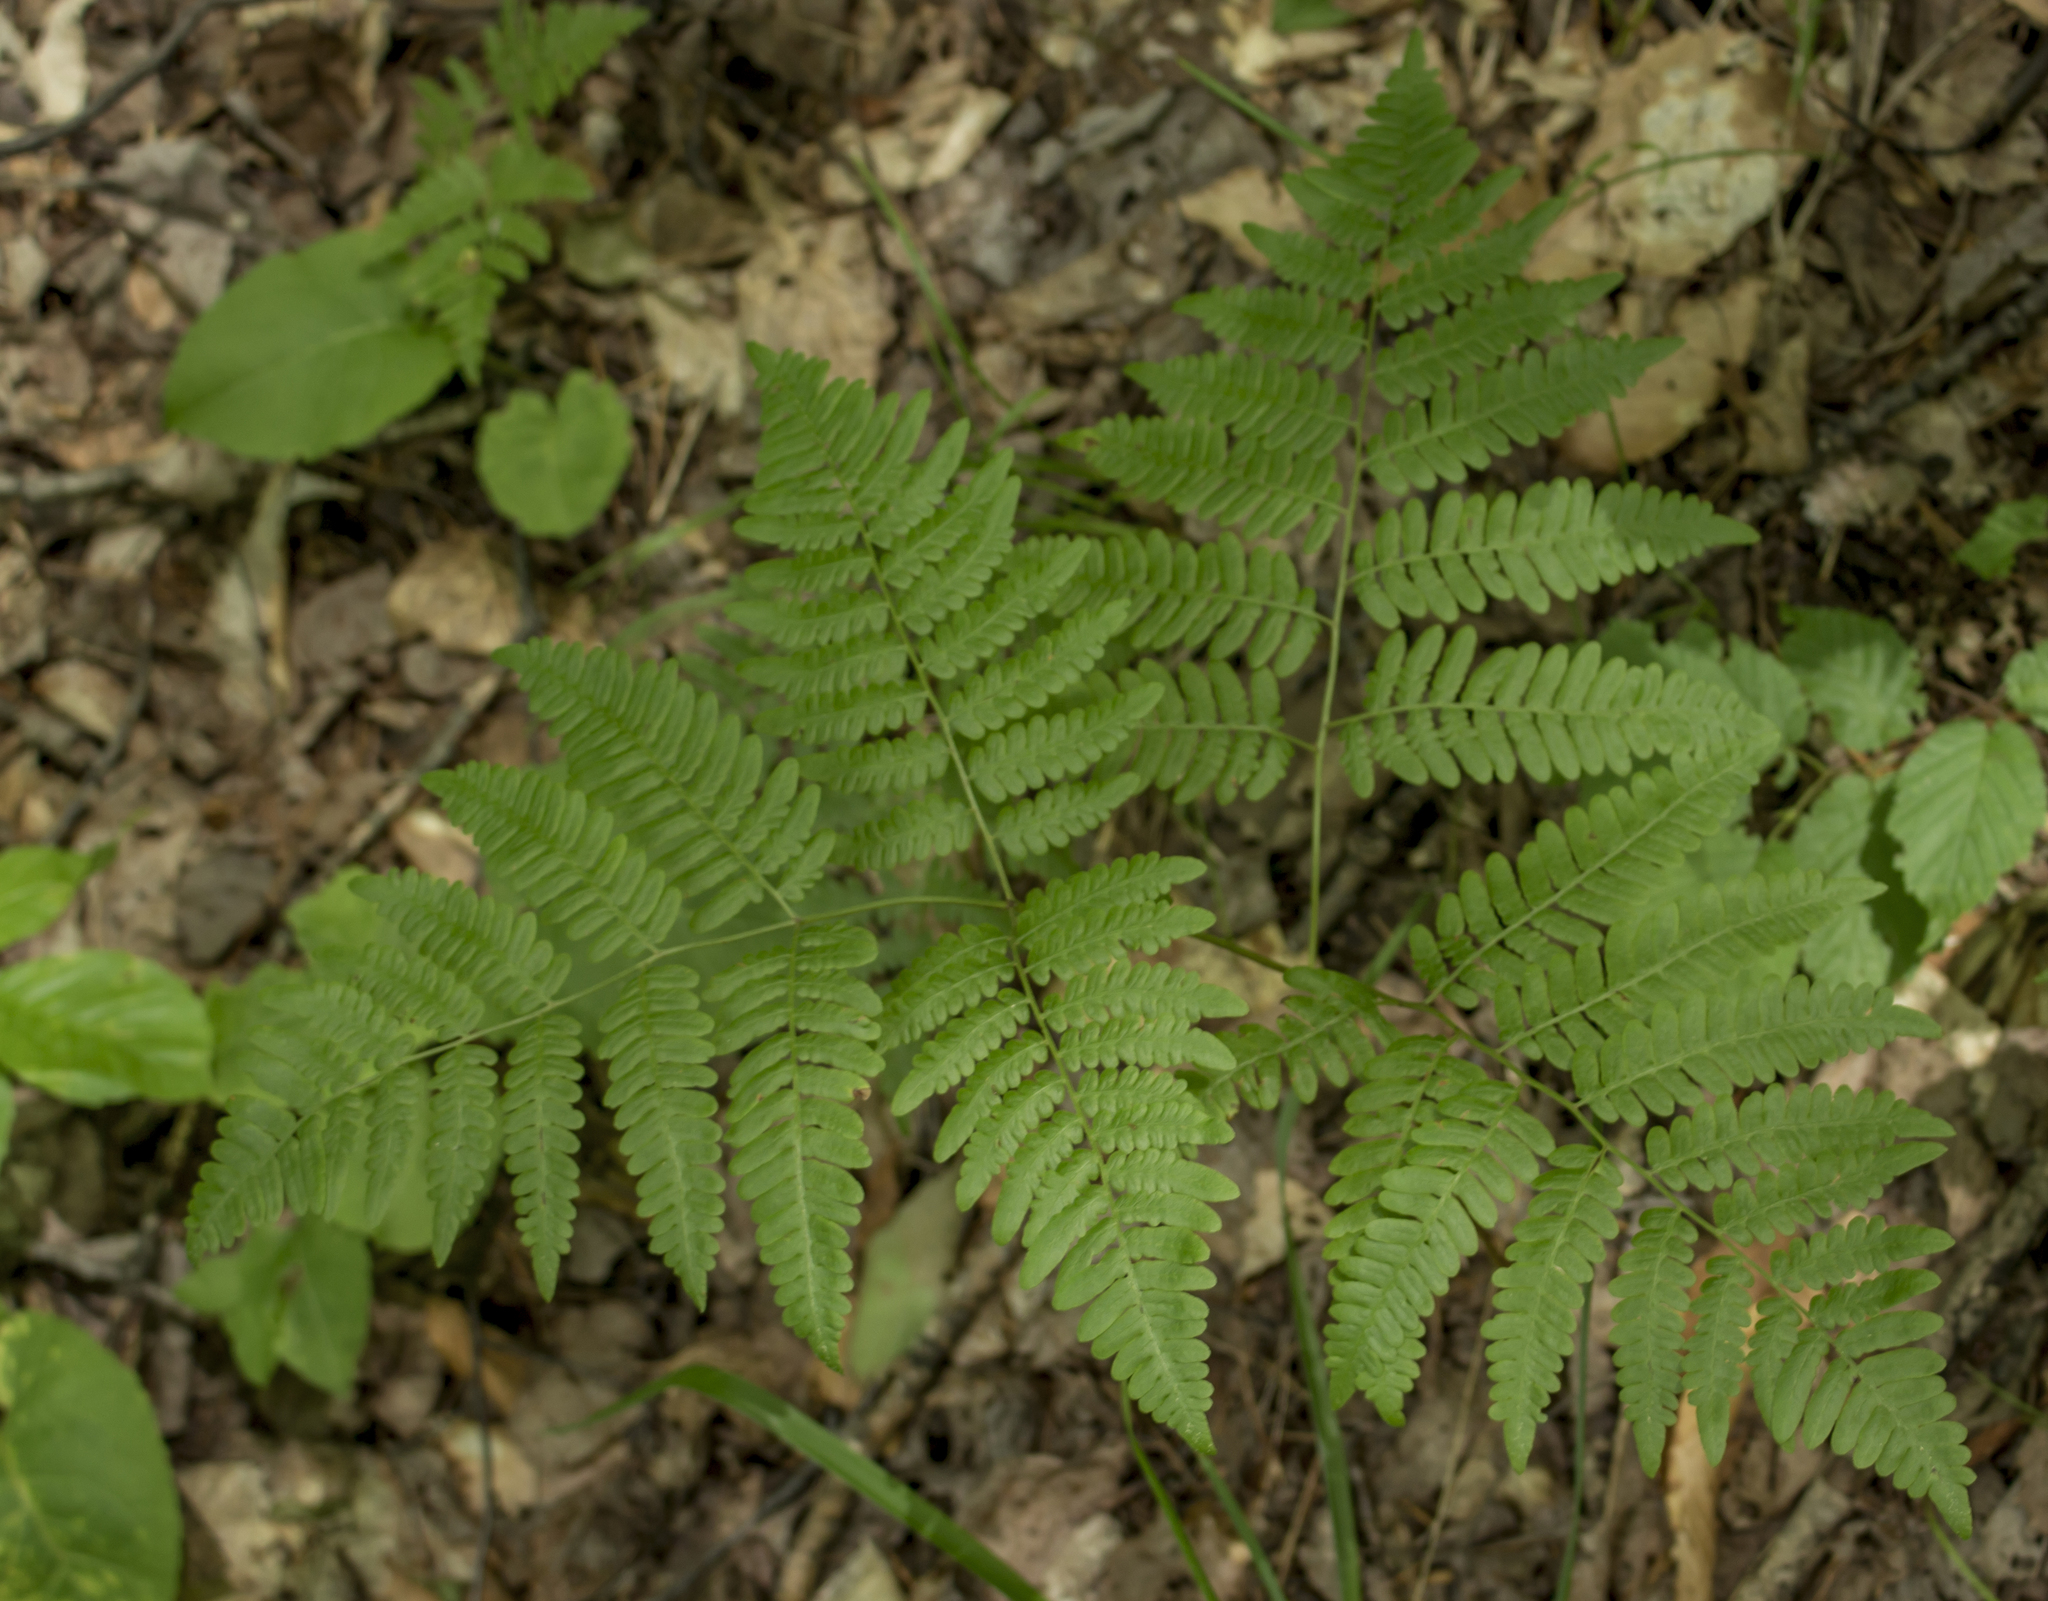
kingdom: Plantae
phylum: Tracheophyta
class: Polypodiopsida
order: Polypodiales
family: Dennstaedtiaceae
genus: Pteridium
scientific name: Pteridium aquilinum
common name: Bracken
